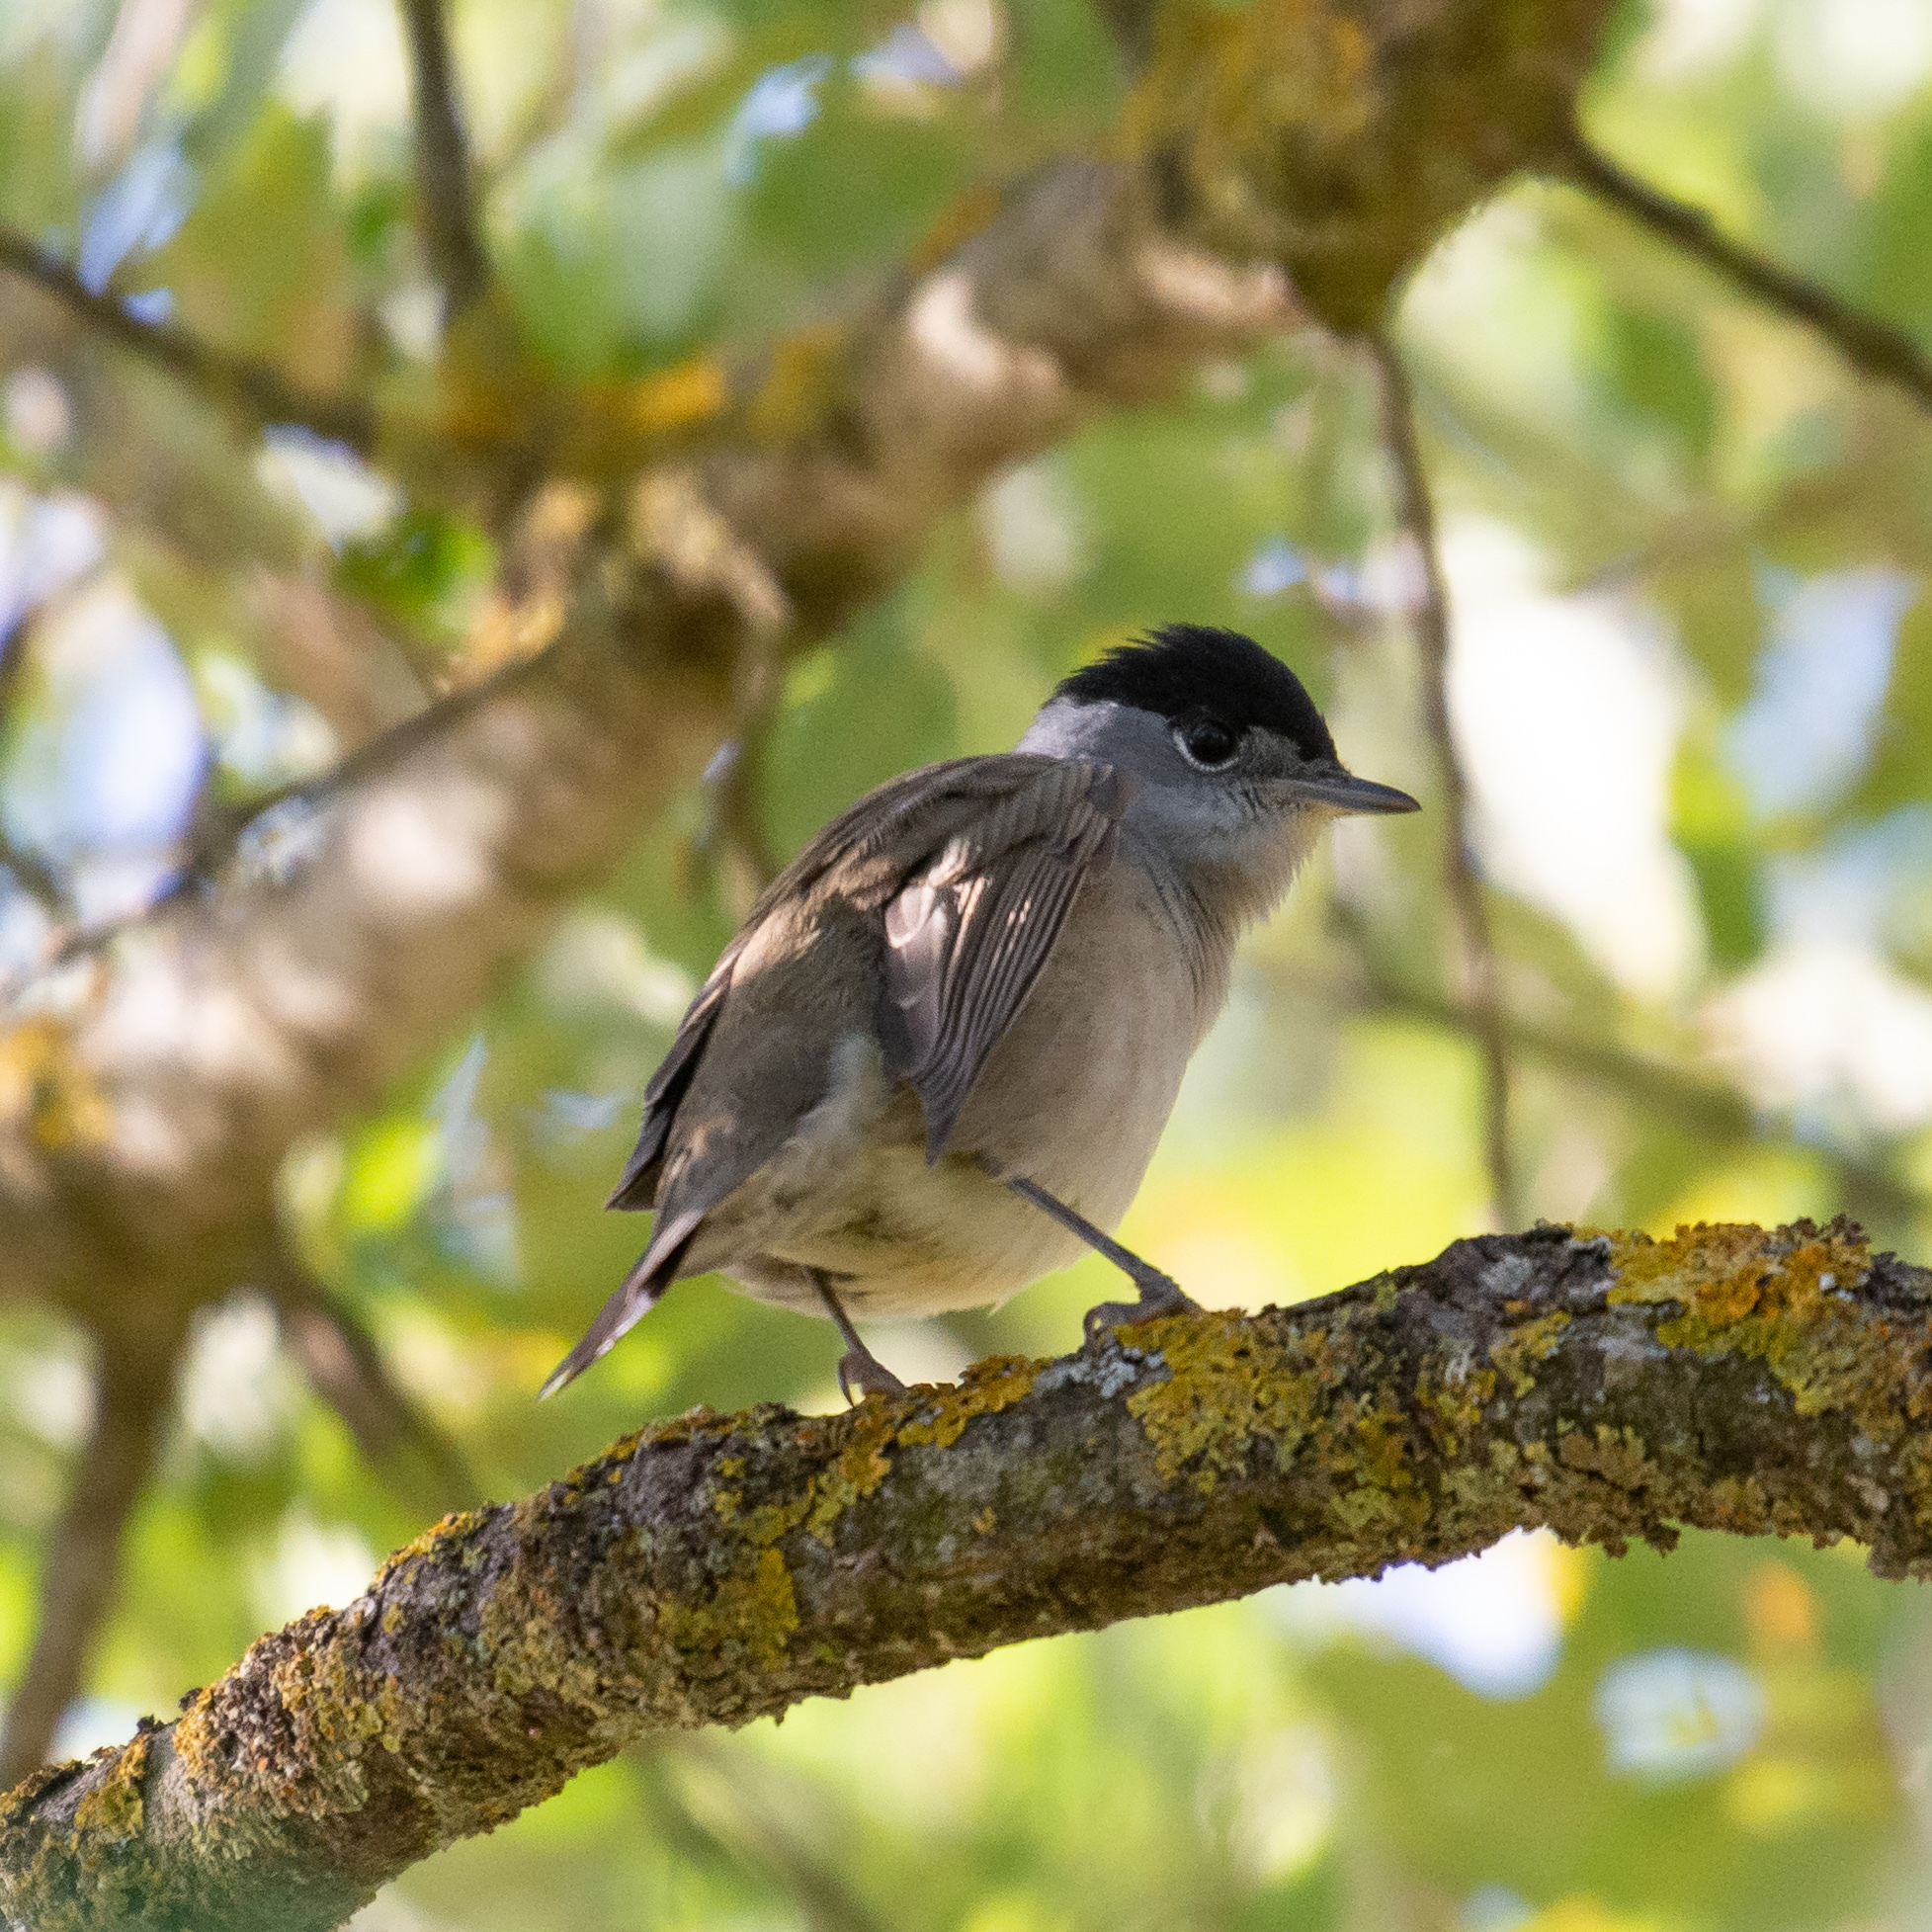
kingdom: Animalia
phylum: Chordata
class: Aves
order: Passeriformes
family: Sylviidae
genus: Sylvia
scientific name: Sylvia atricapilla
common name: Eurasian blackcap
